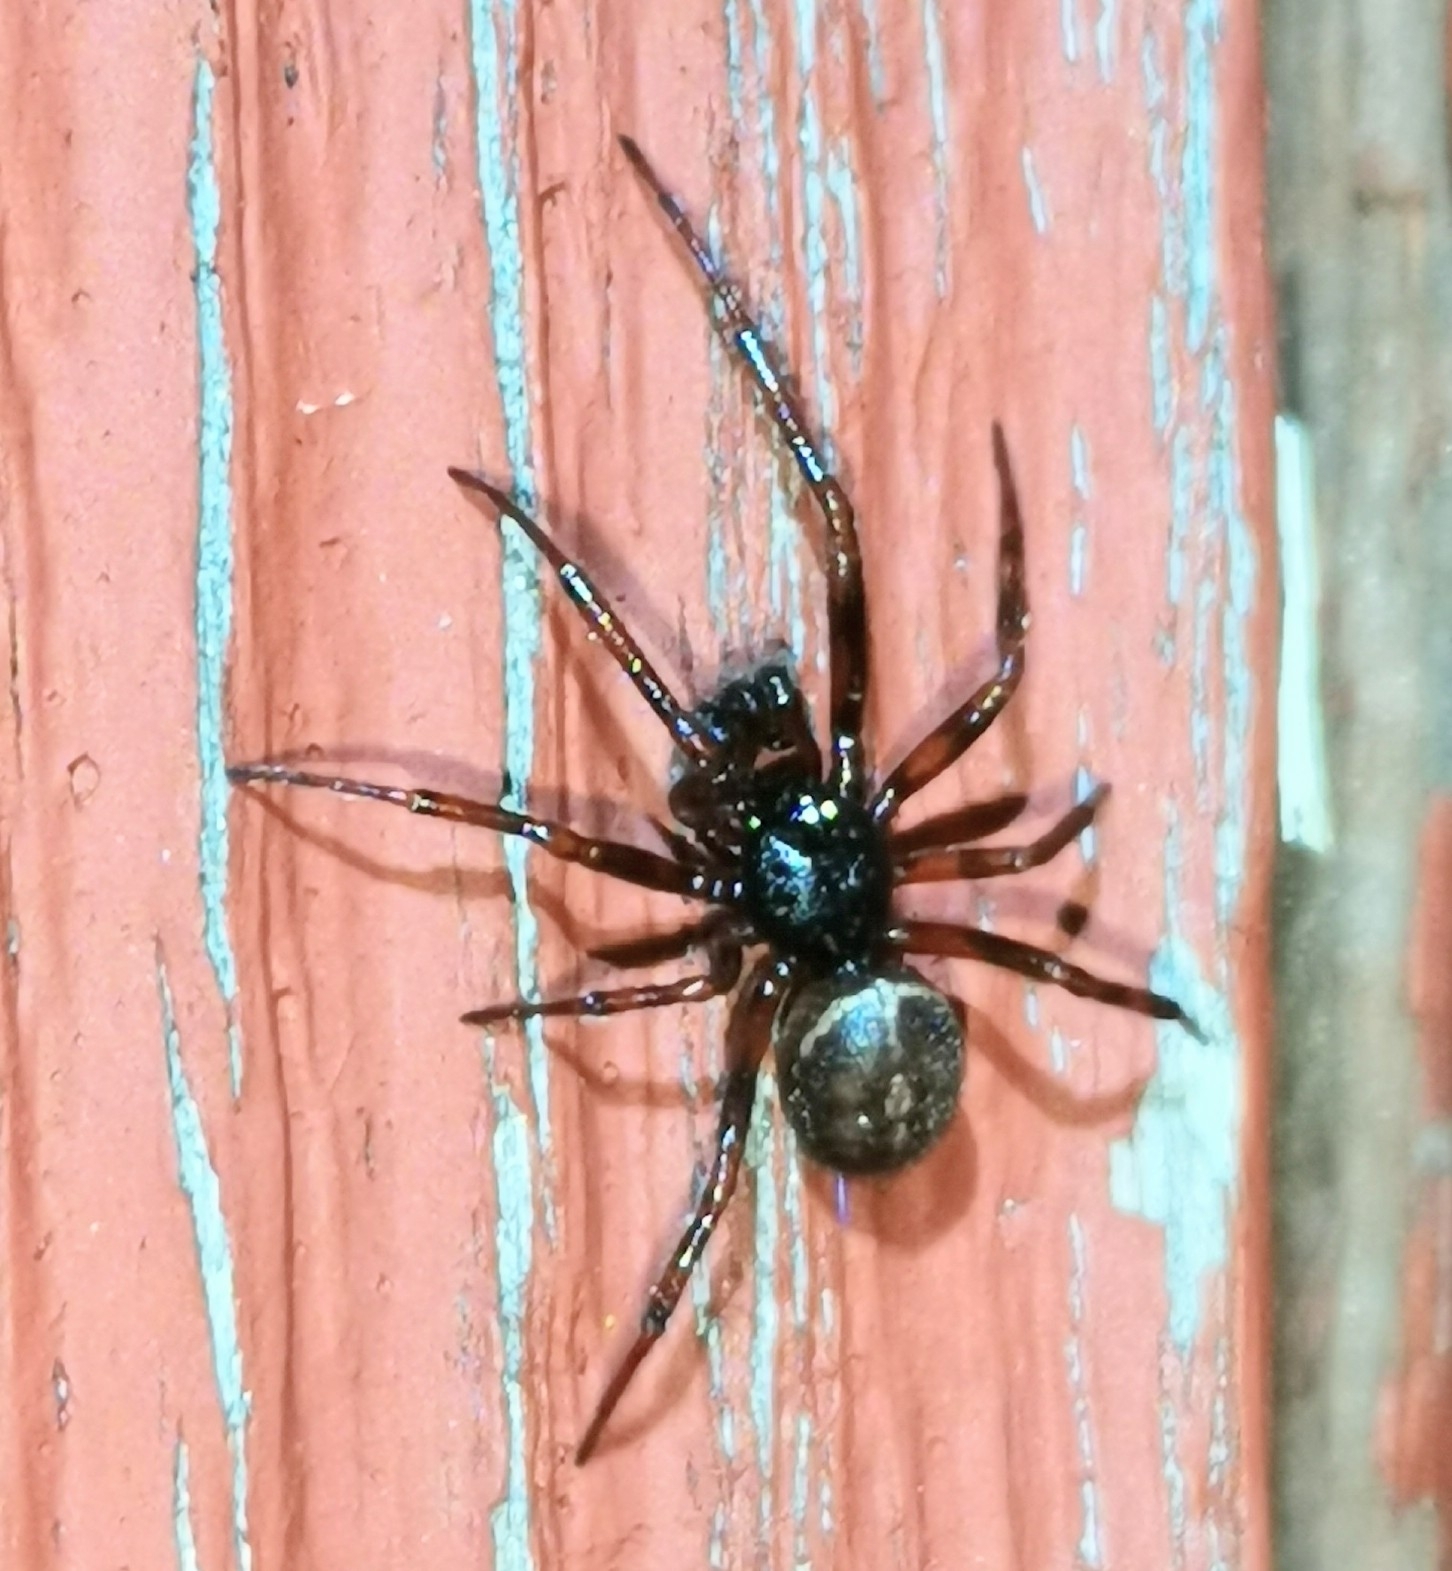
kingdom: Animalia
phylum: Arthropoda
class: Arachnida
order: Araneae
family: Theridiidae
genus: Steatoda
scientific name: Steatoda bipunctata
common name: False widow
